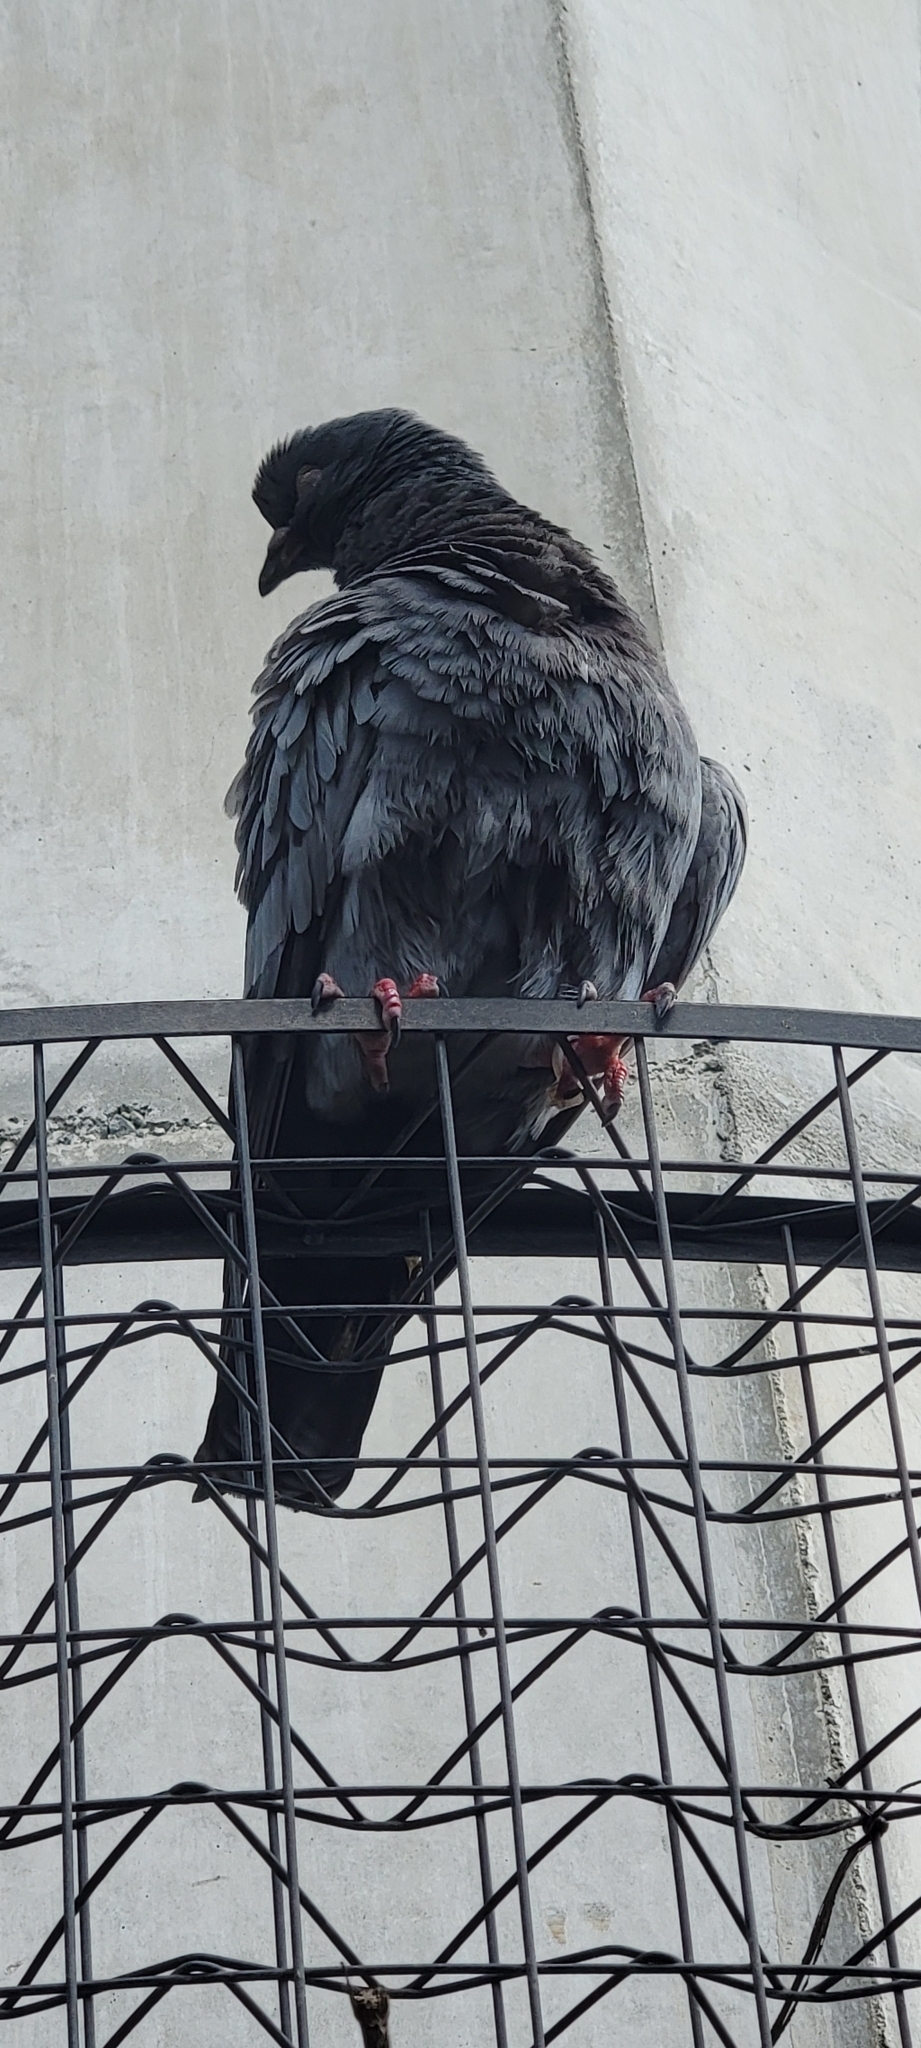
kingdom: Animalia
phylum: Chordata
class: Aves
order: Columbiformes
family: Columbidae
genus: Columba
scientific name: Columba livia
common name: Rock pigeon
